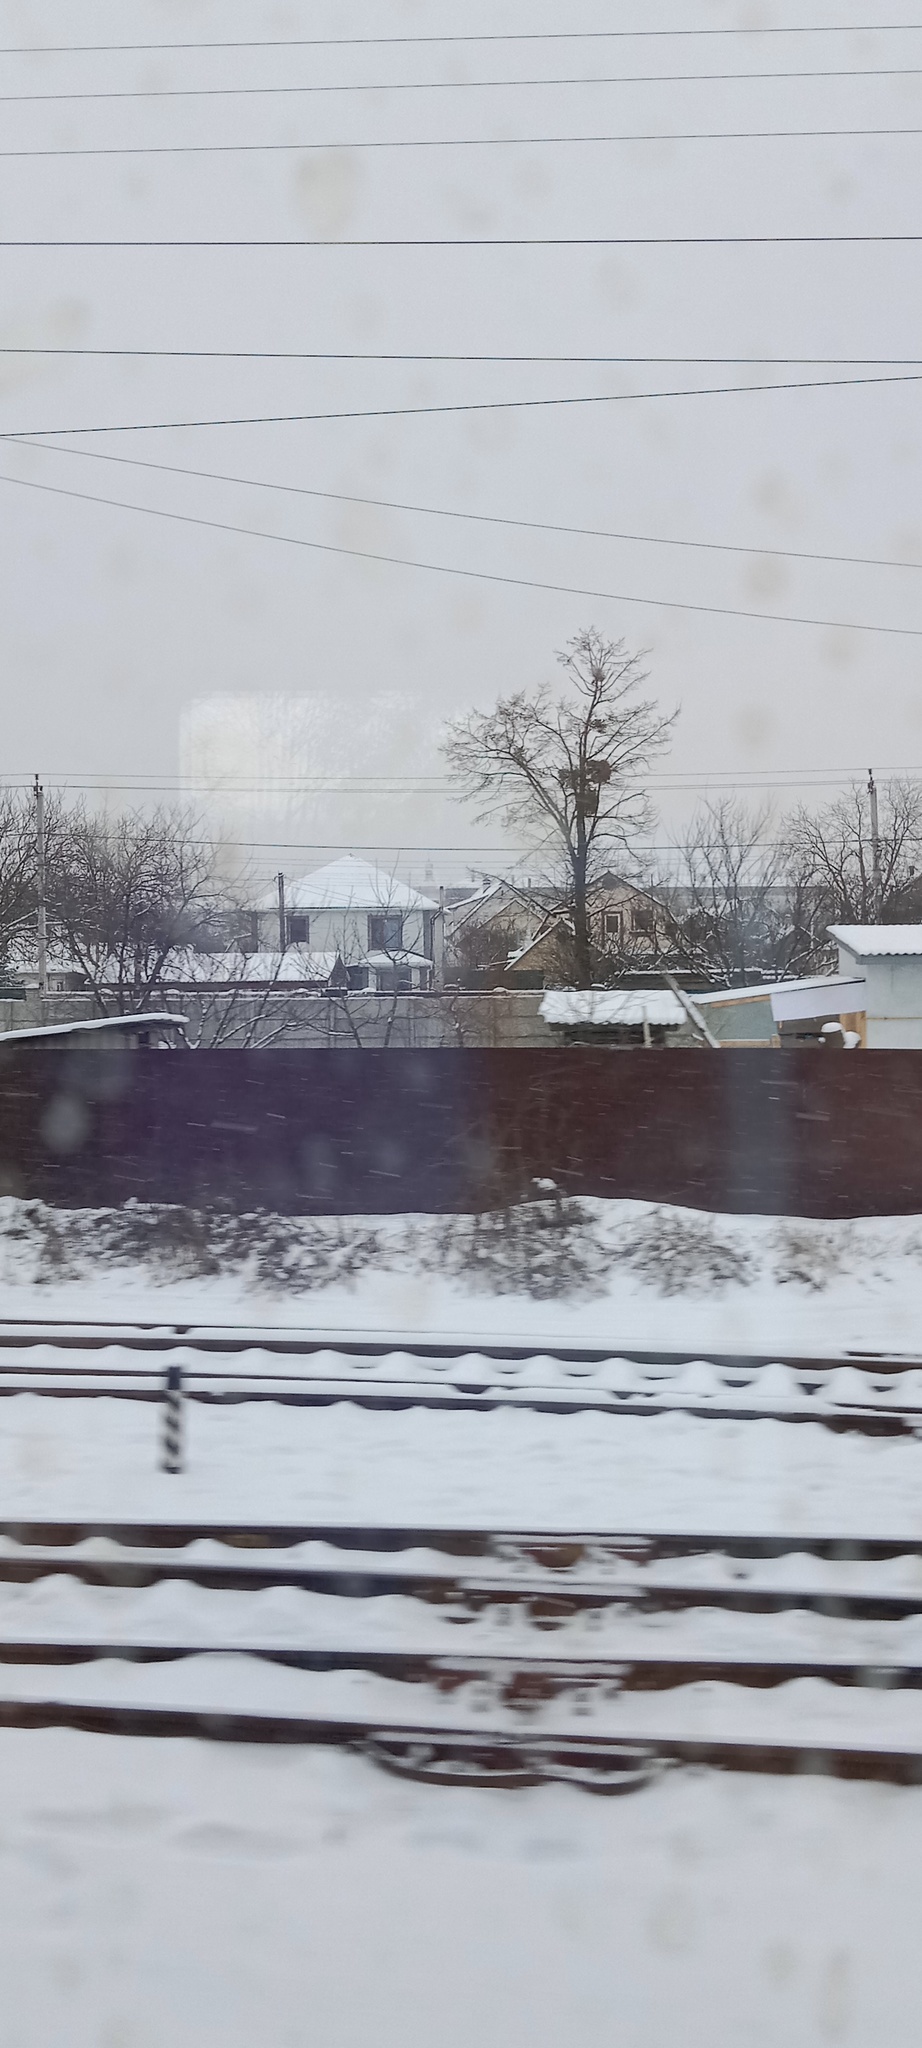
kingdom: Plantae
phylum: Tracheophyta
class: Magnoliopsida
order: Santalales
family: Viscaceae
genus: Viscum
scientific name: Viscum album
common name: Mistletoe
